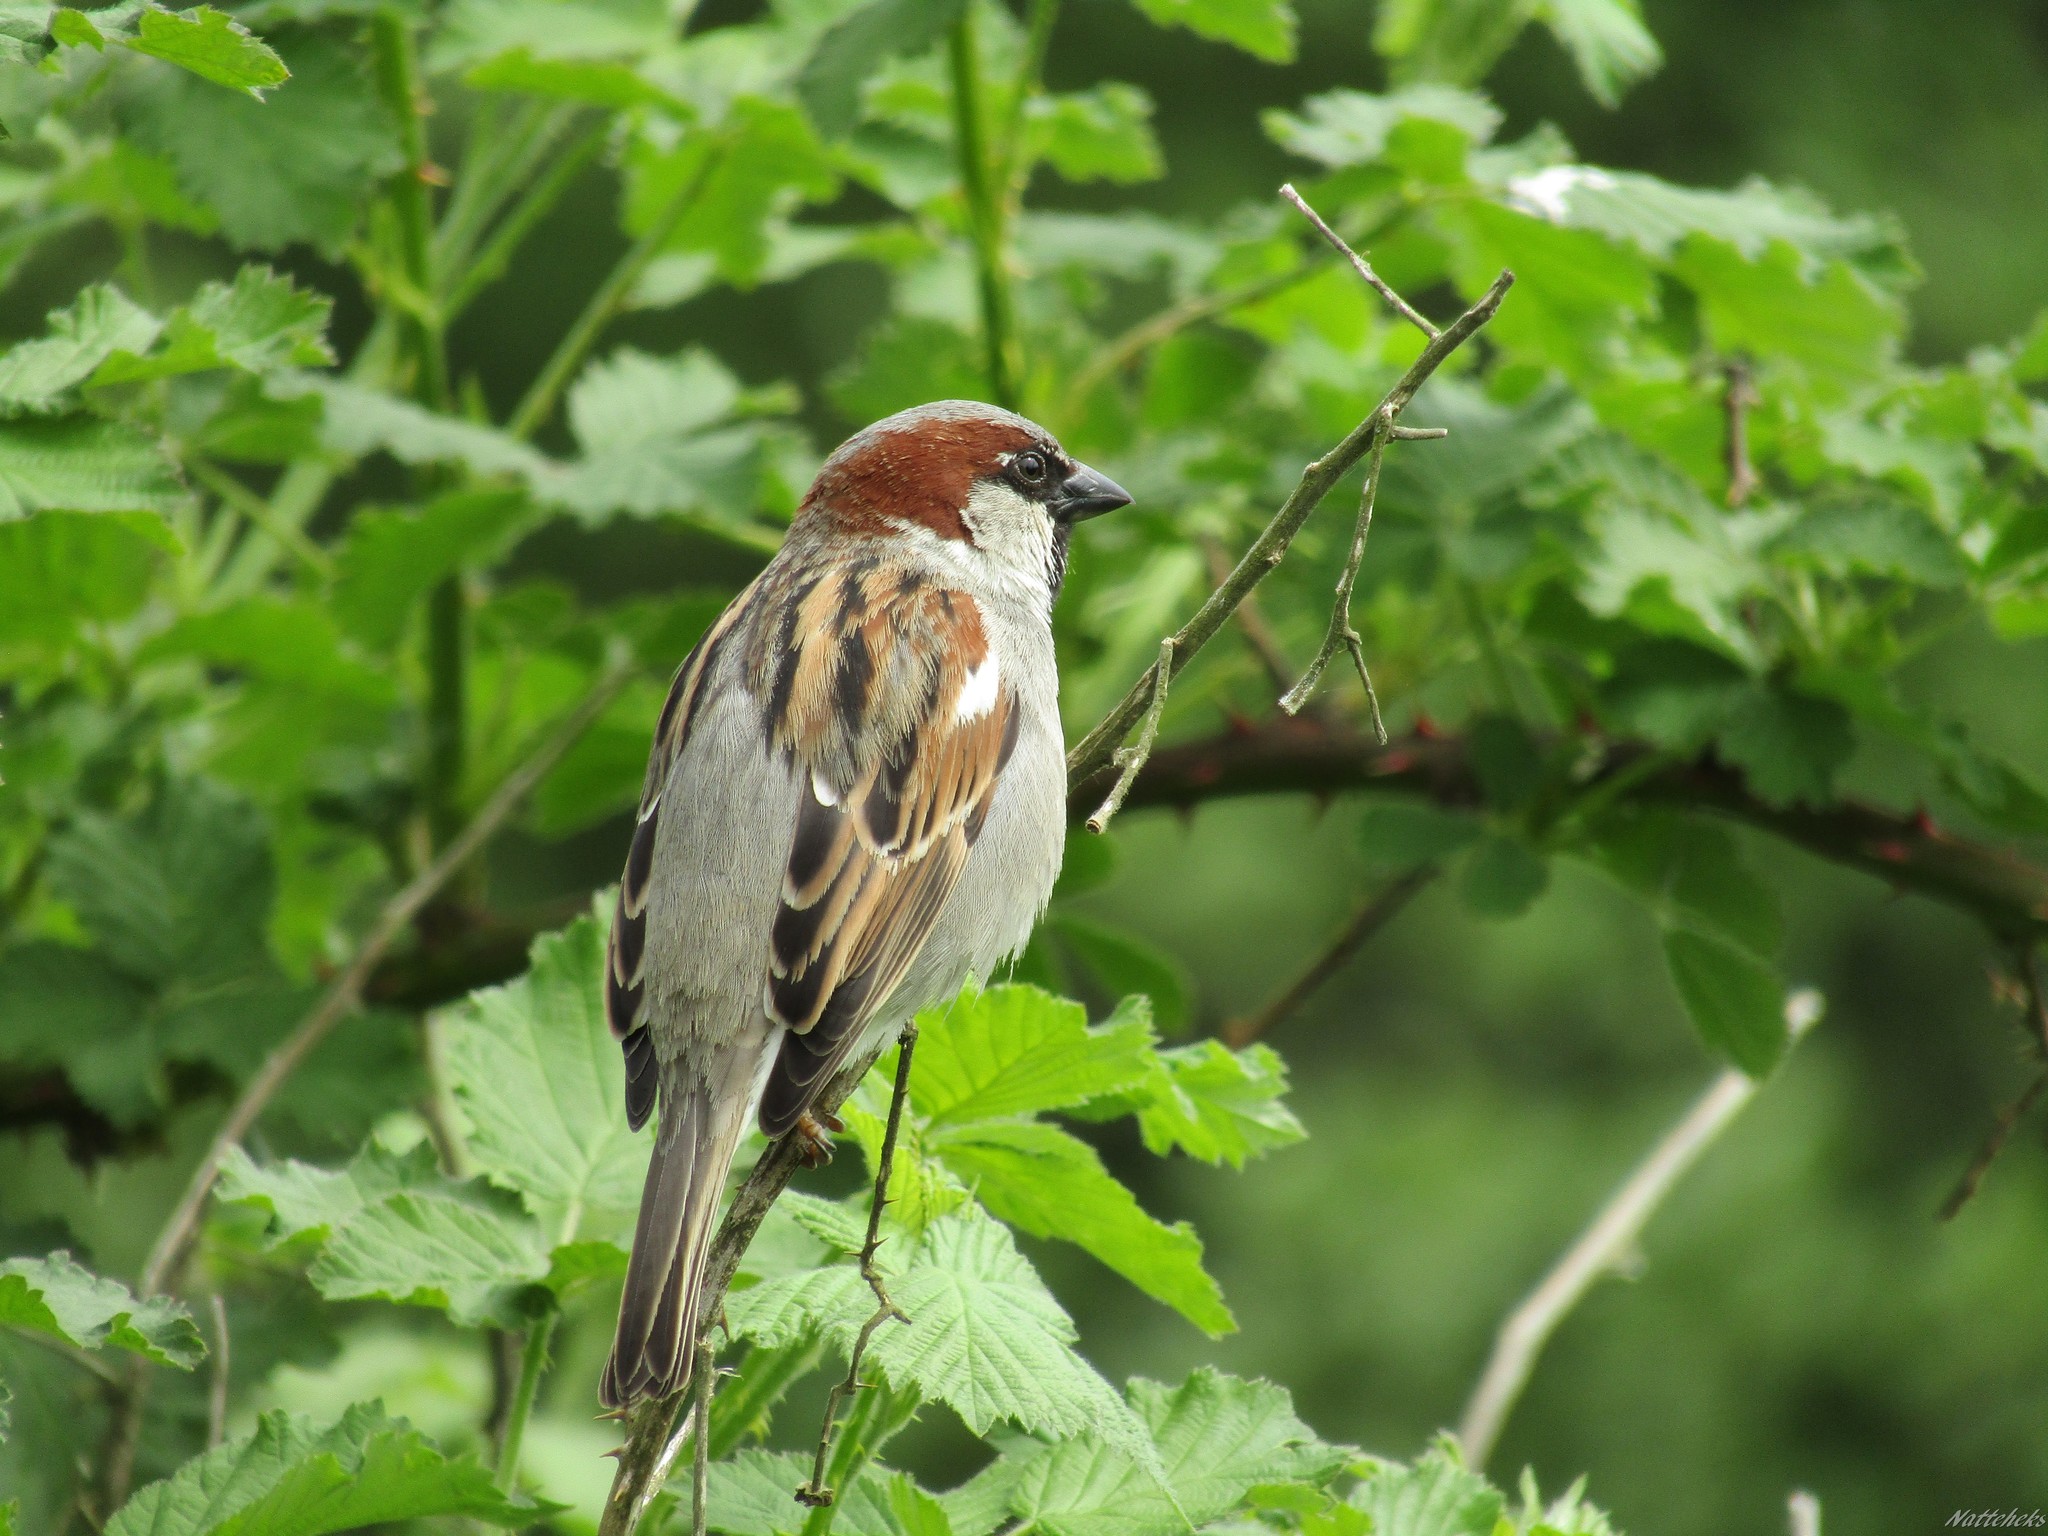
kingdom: Animalia
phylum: Chordata
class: Aves
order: Passeriformes
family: Passeridae
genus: Passer
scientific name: Passer domesticus
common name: House sparrow
